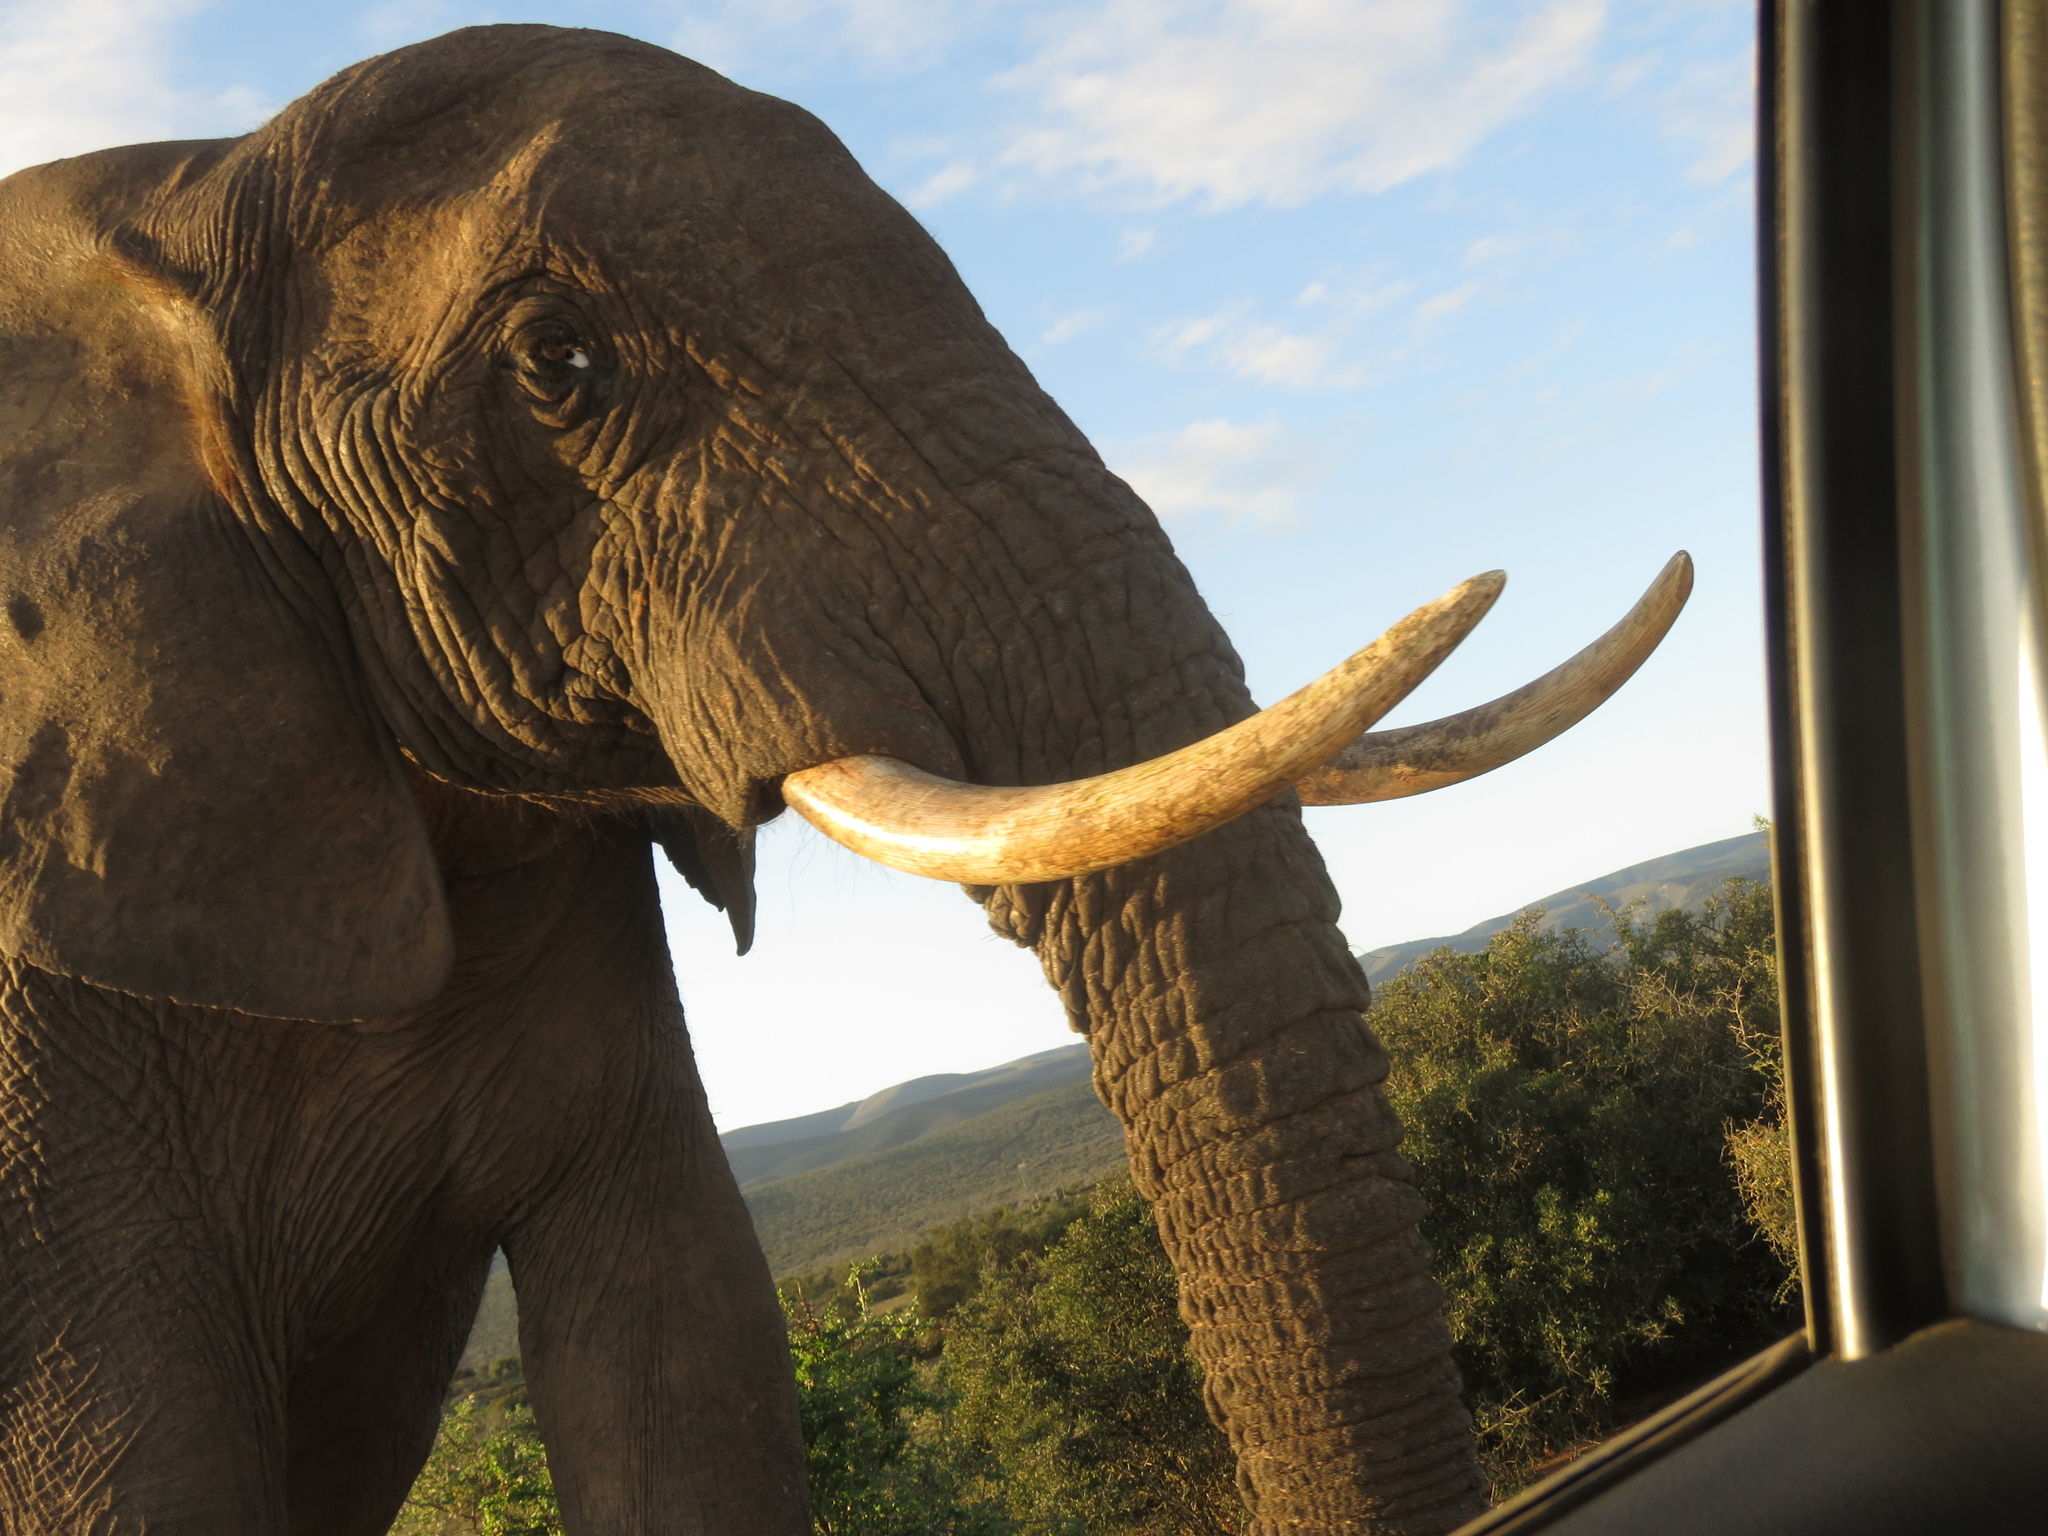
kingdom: Animalia
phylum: Chordata
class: Mammalia
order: Proboscidea
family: Elephantidae
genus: Loxodonta
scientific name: Loxodonta africana
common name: African elephant
